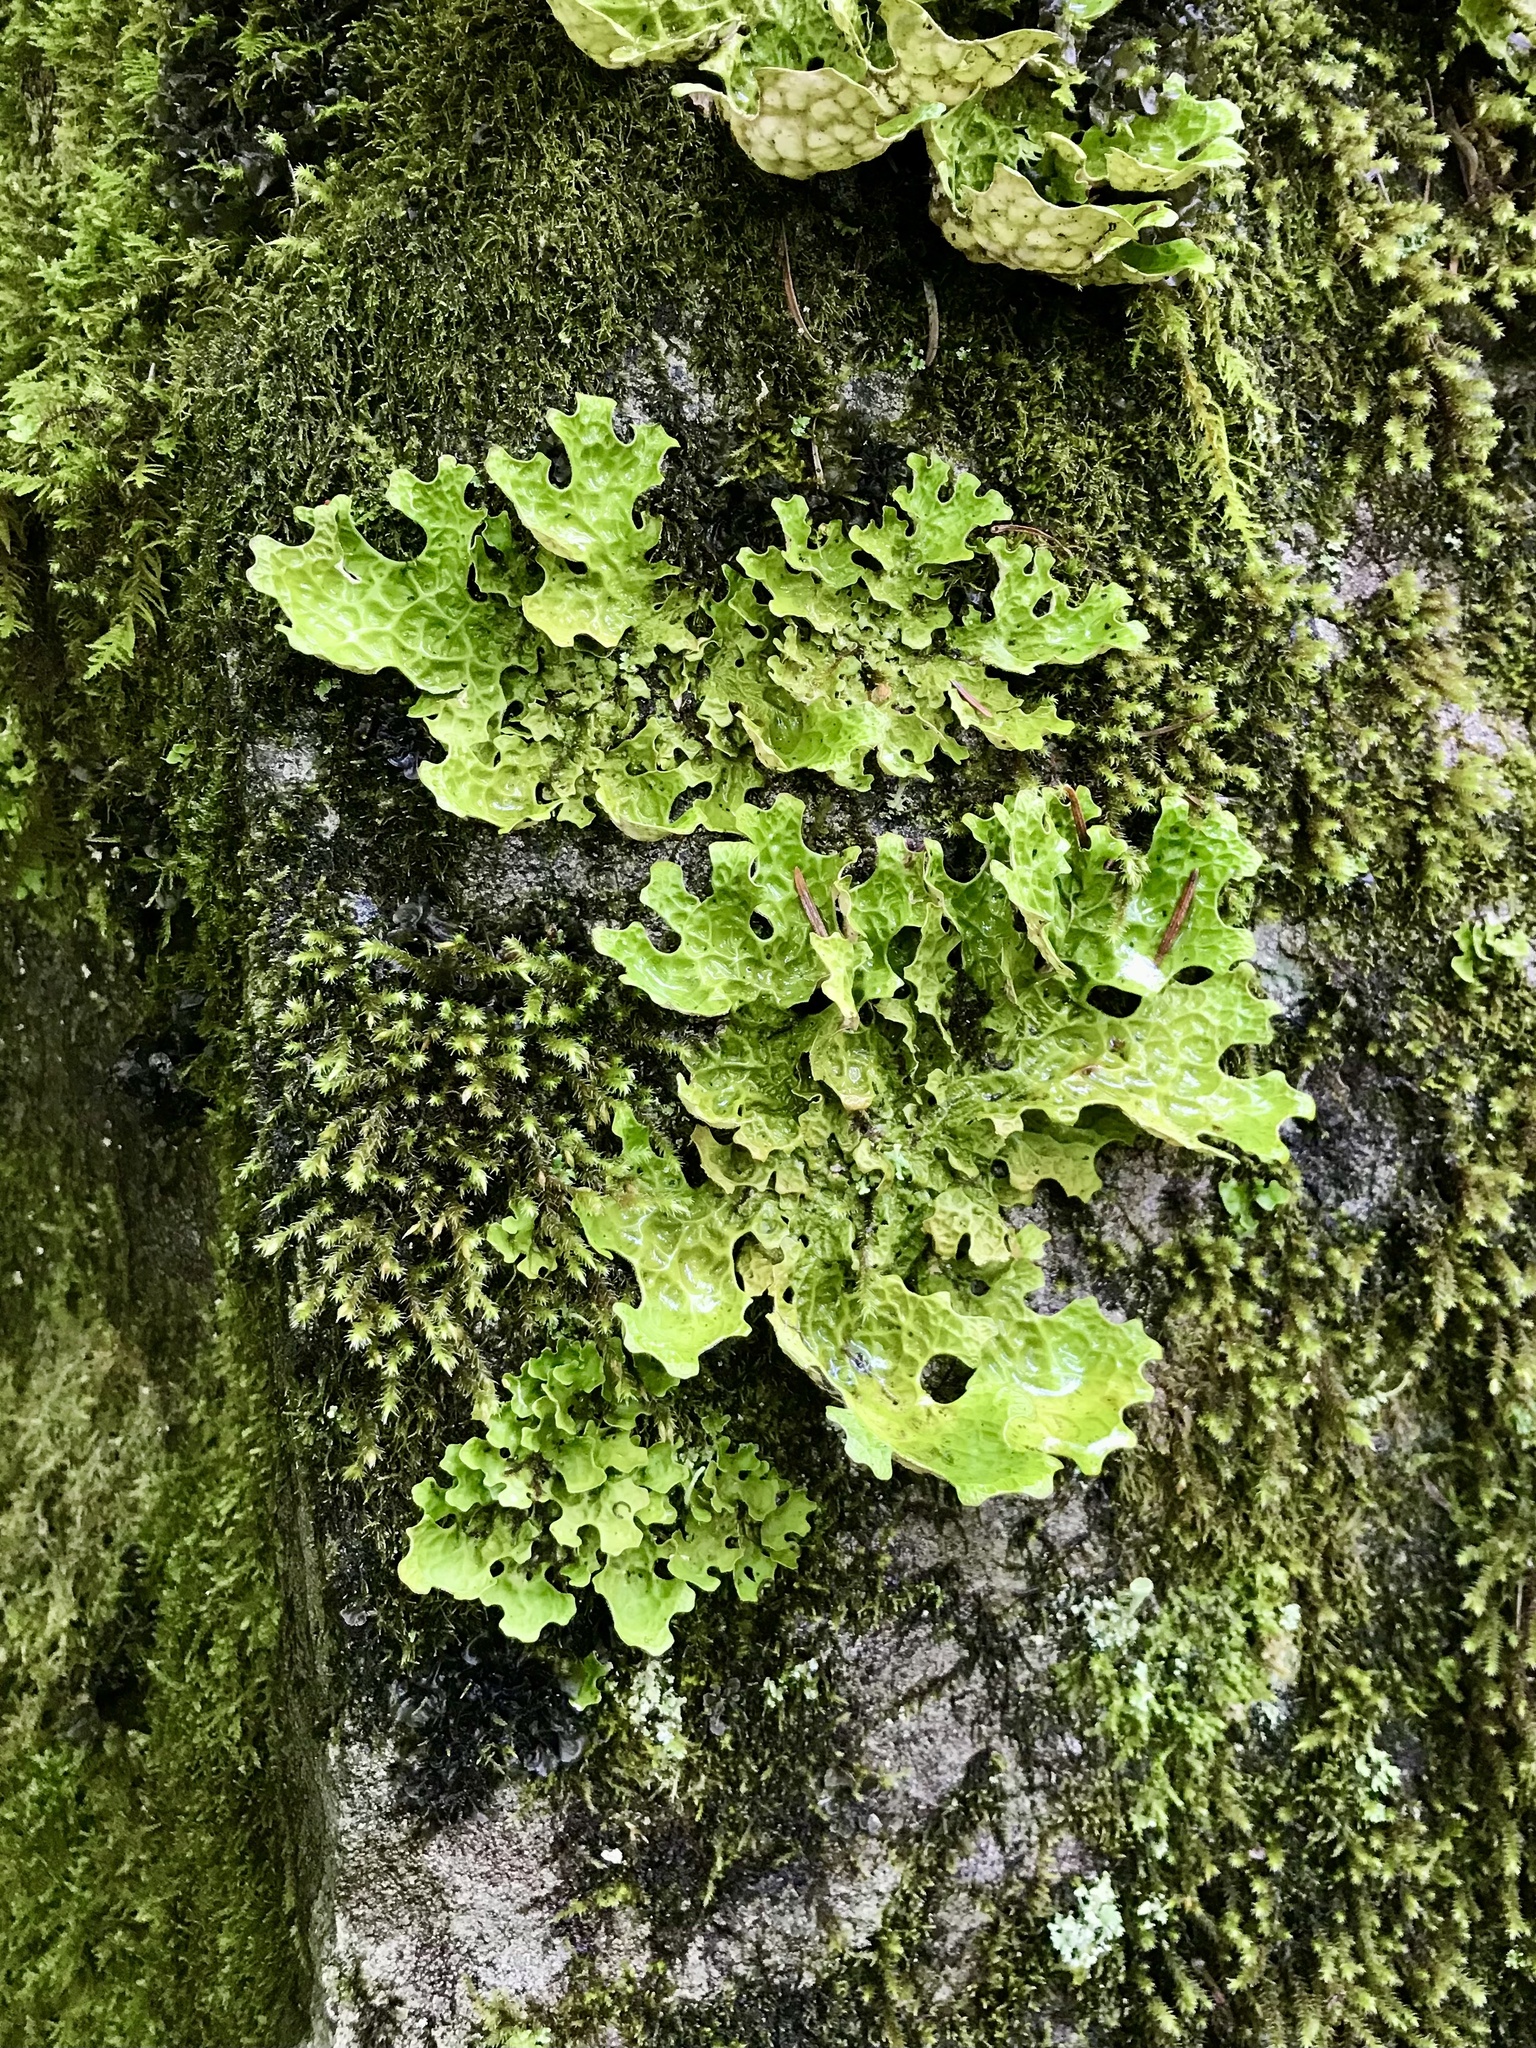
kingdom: Fungi
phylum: Ascomycota
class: Lecanoromycetes
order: Peltigerales
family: Lobariaceae
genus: Lobaria
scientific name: Lobaria pulmonaria
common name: Lungwort
